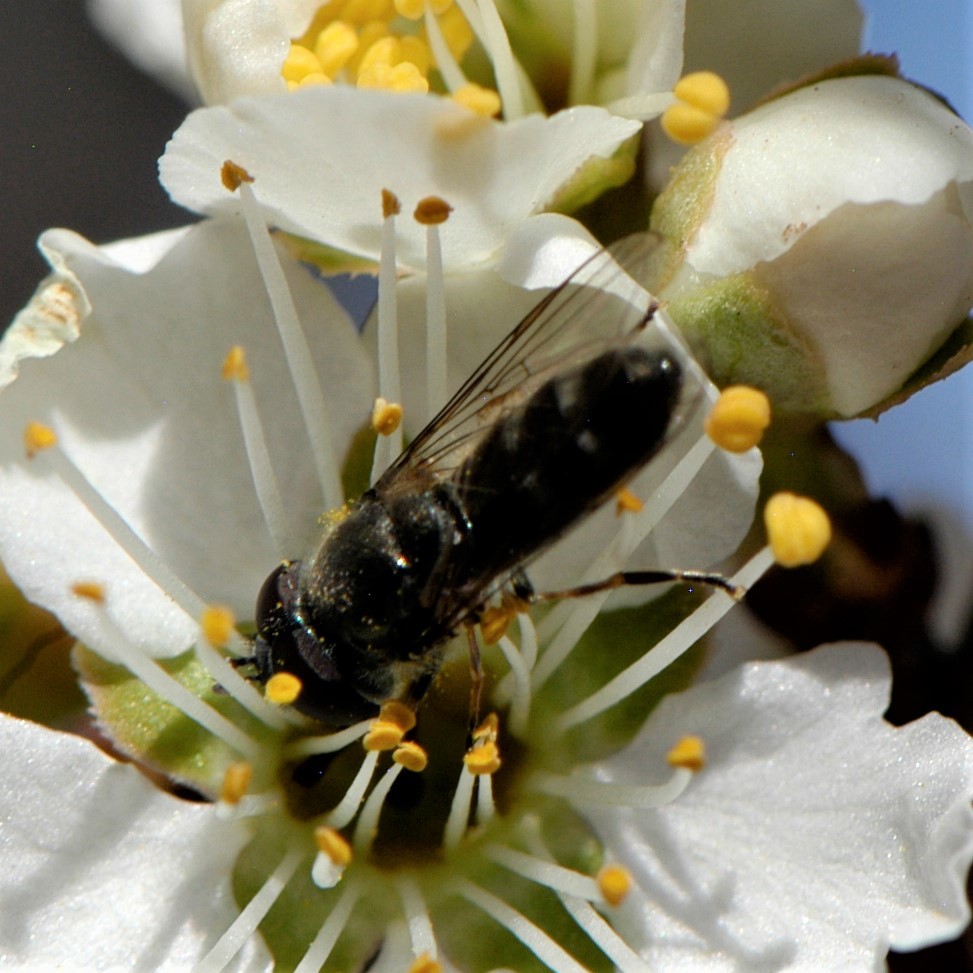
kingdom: Animalia
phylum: Arthropoda
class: Insecta
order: Diptera
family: Syrphidae
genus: Platycheirus
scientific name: Platycheirus
